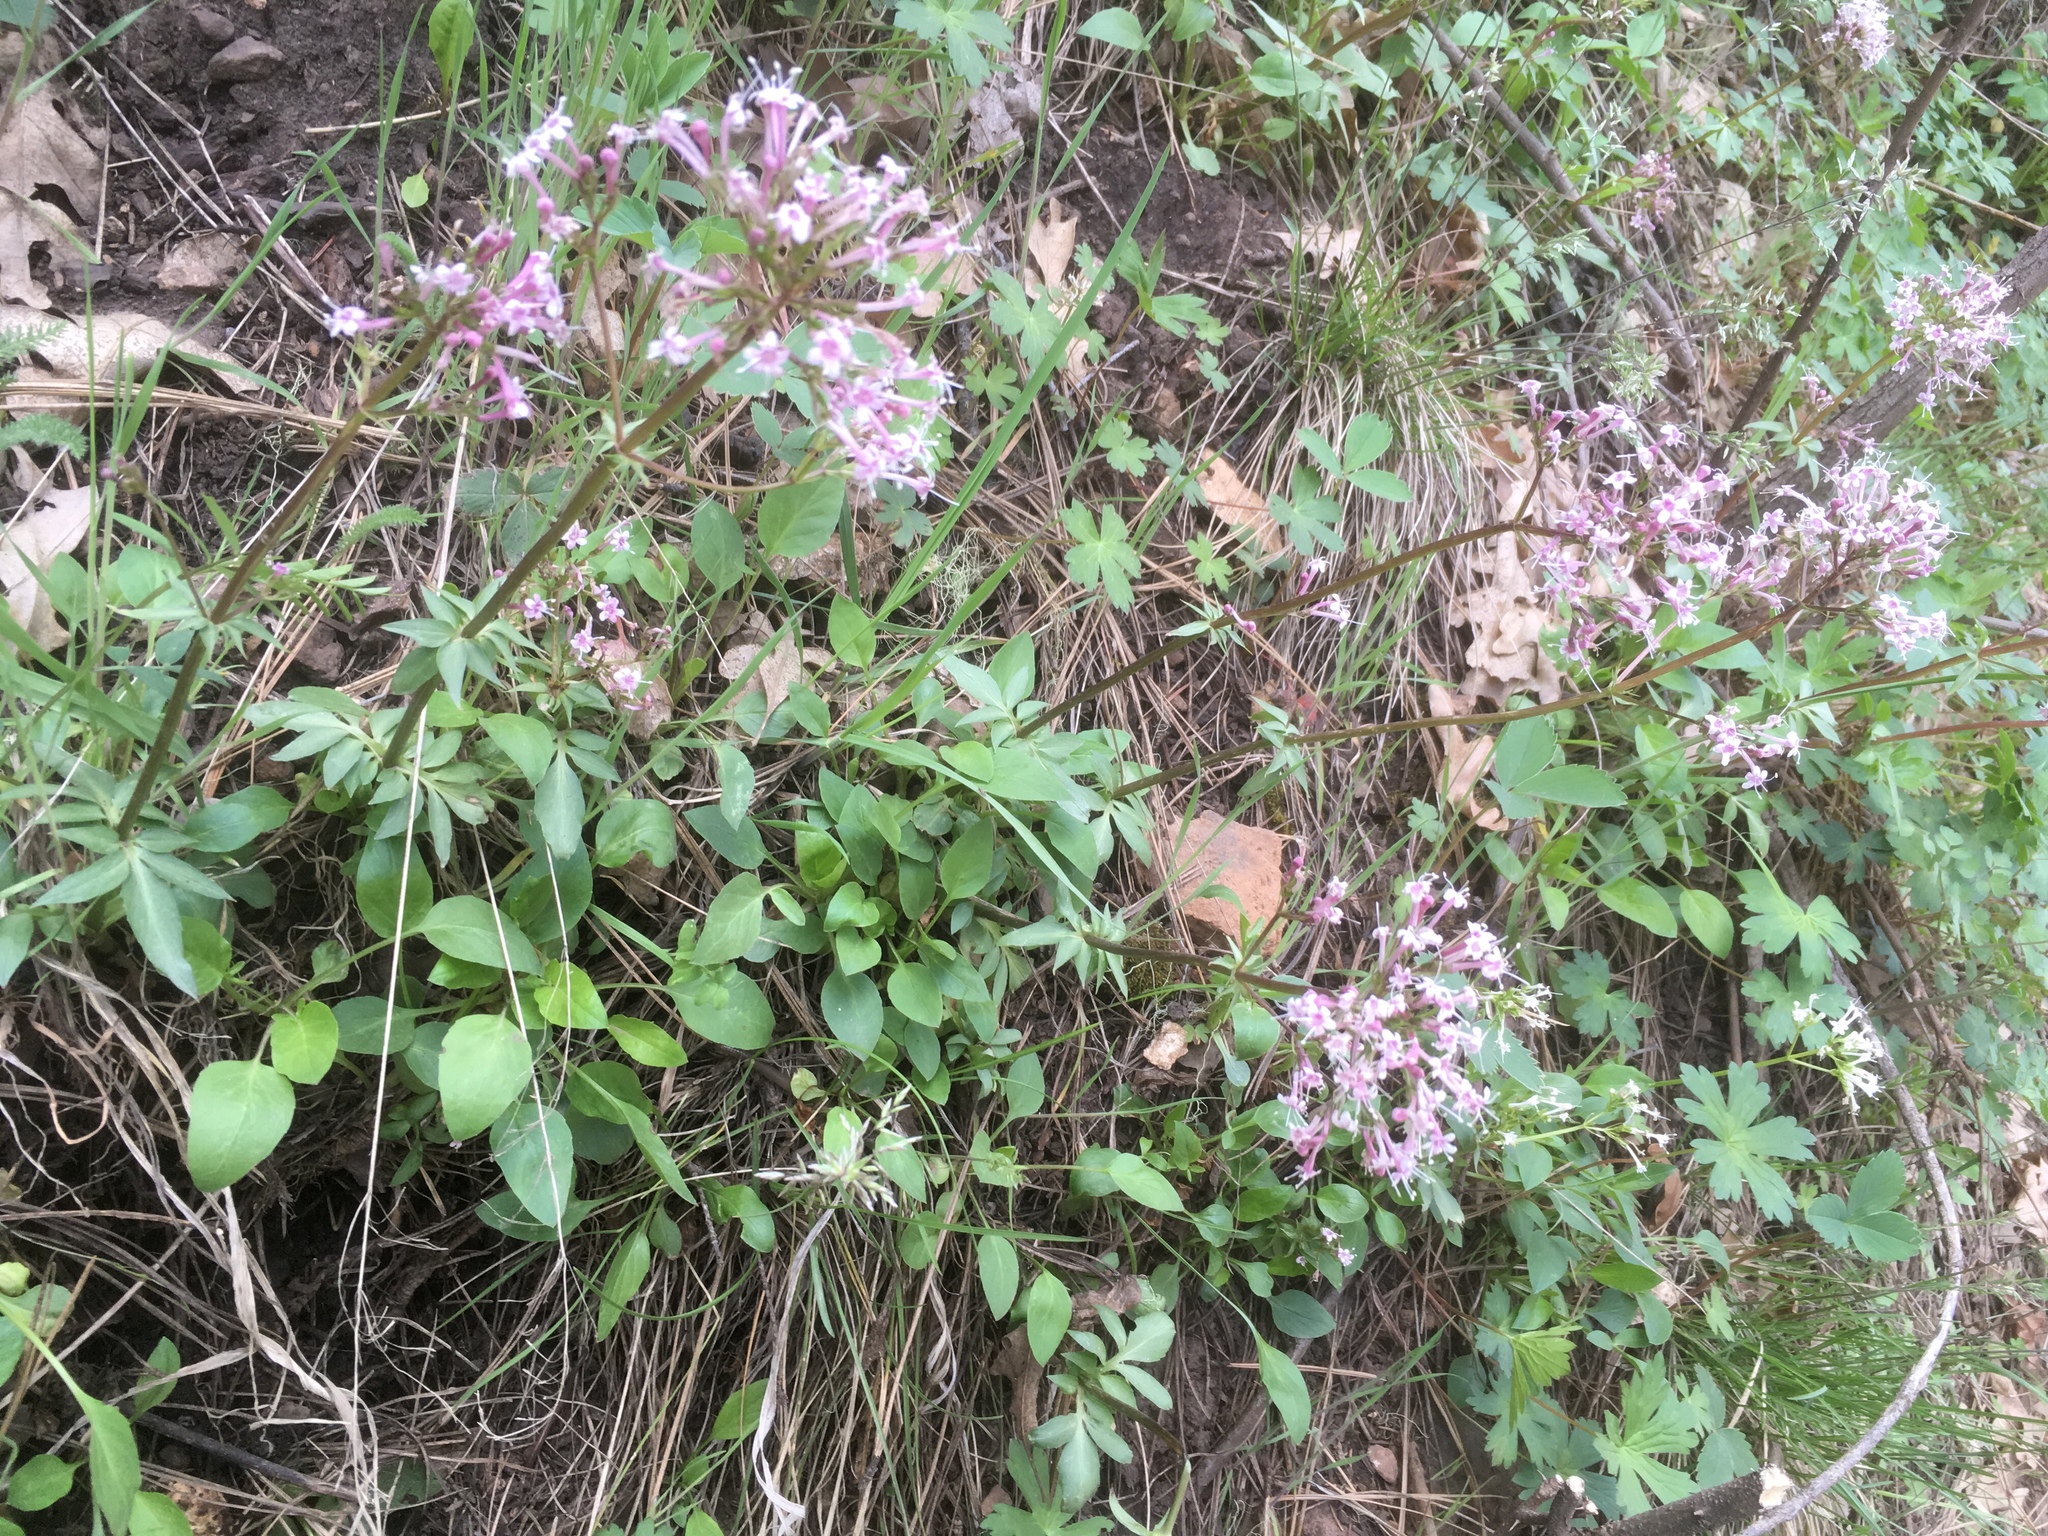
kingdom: Plantae
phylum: Tracheophyta
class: Magnoliopsida
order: Dipsacales
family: Caprifoliaceae
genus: Valeriana
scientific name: Valeriana arizonica
